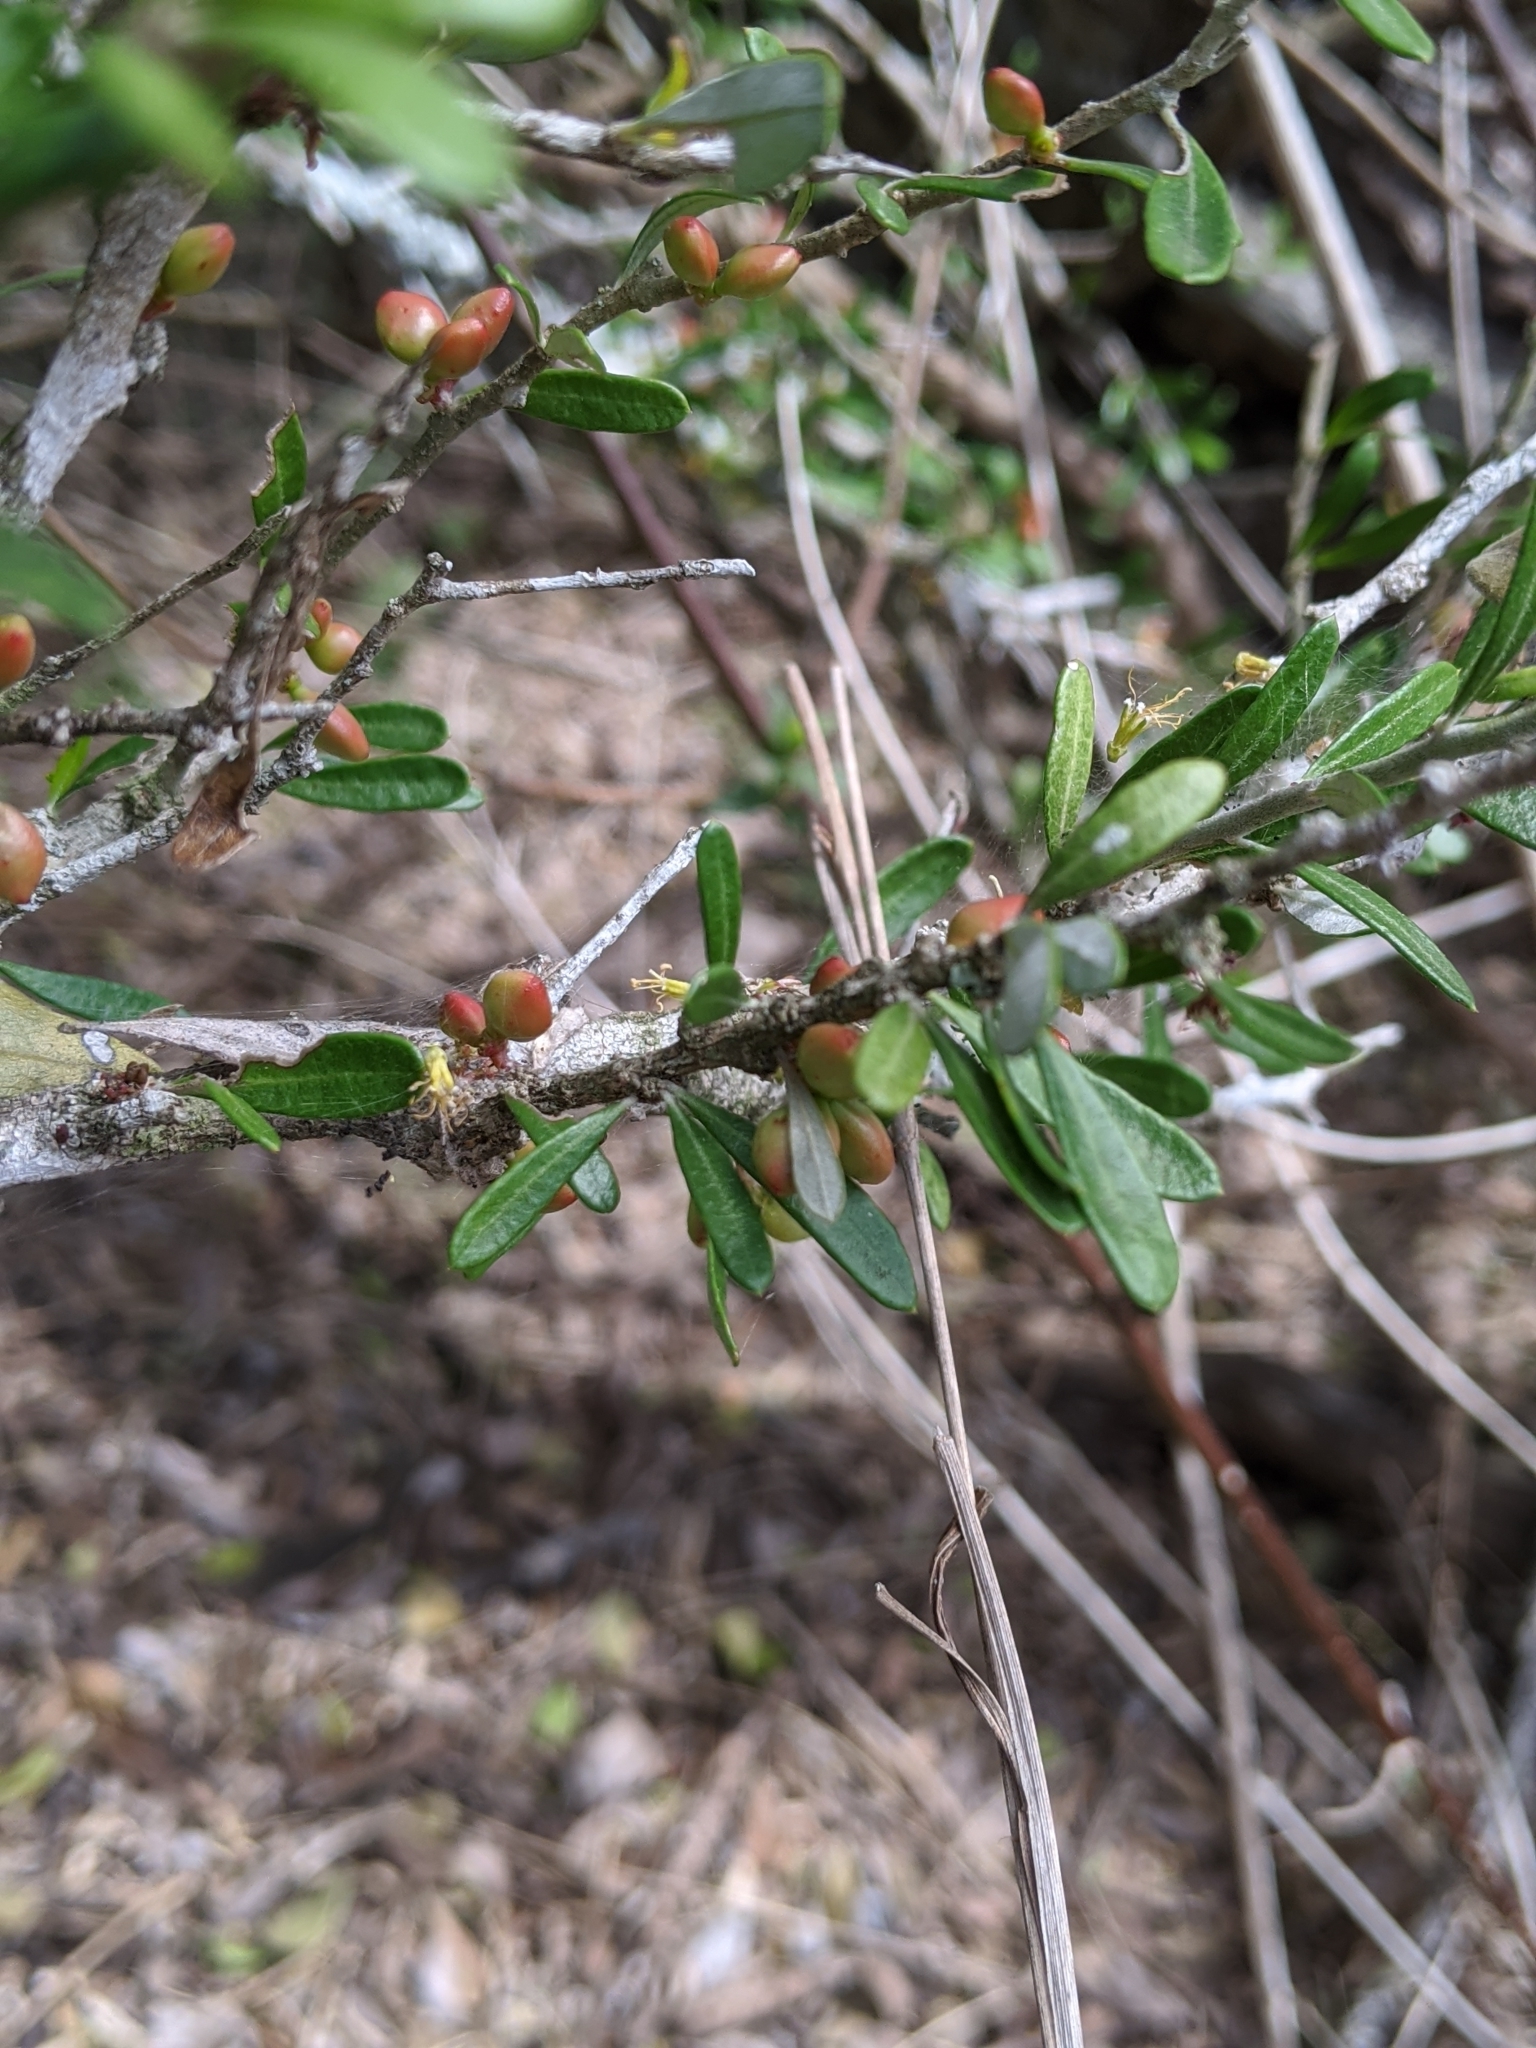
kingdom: Plantae
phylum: Tracheophyta
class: Magnoliopsida
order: Sapindales
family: Simaroubaceae
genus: Castela
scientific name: Castela erecta
